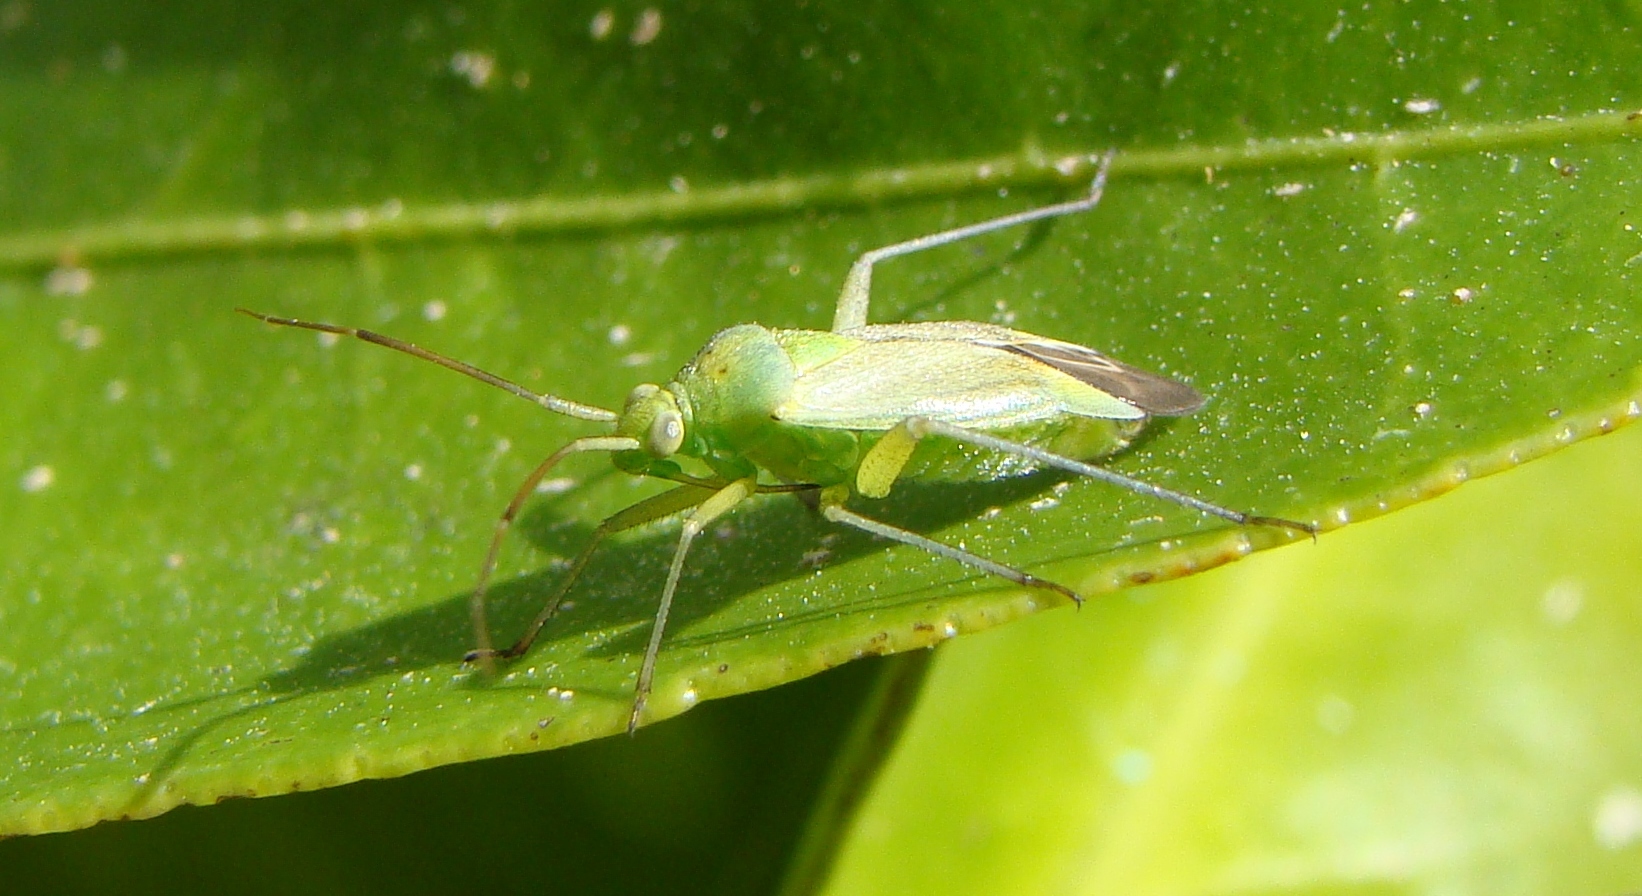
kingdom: Animalia
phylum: Arthropoda
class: Insecta
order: Hemiptera
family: Miridae
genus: Closterotomus
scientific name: Closterotomus norvegicus
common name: Plant bug
